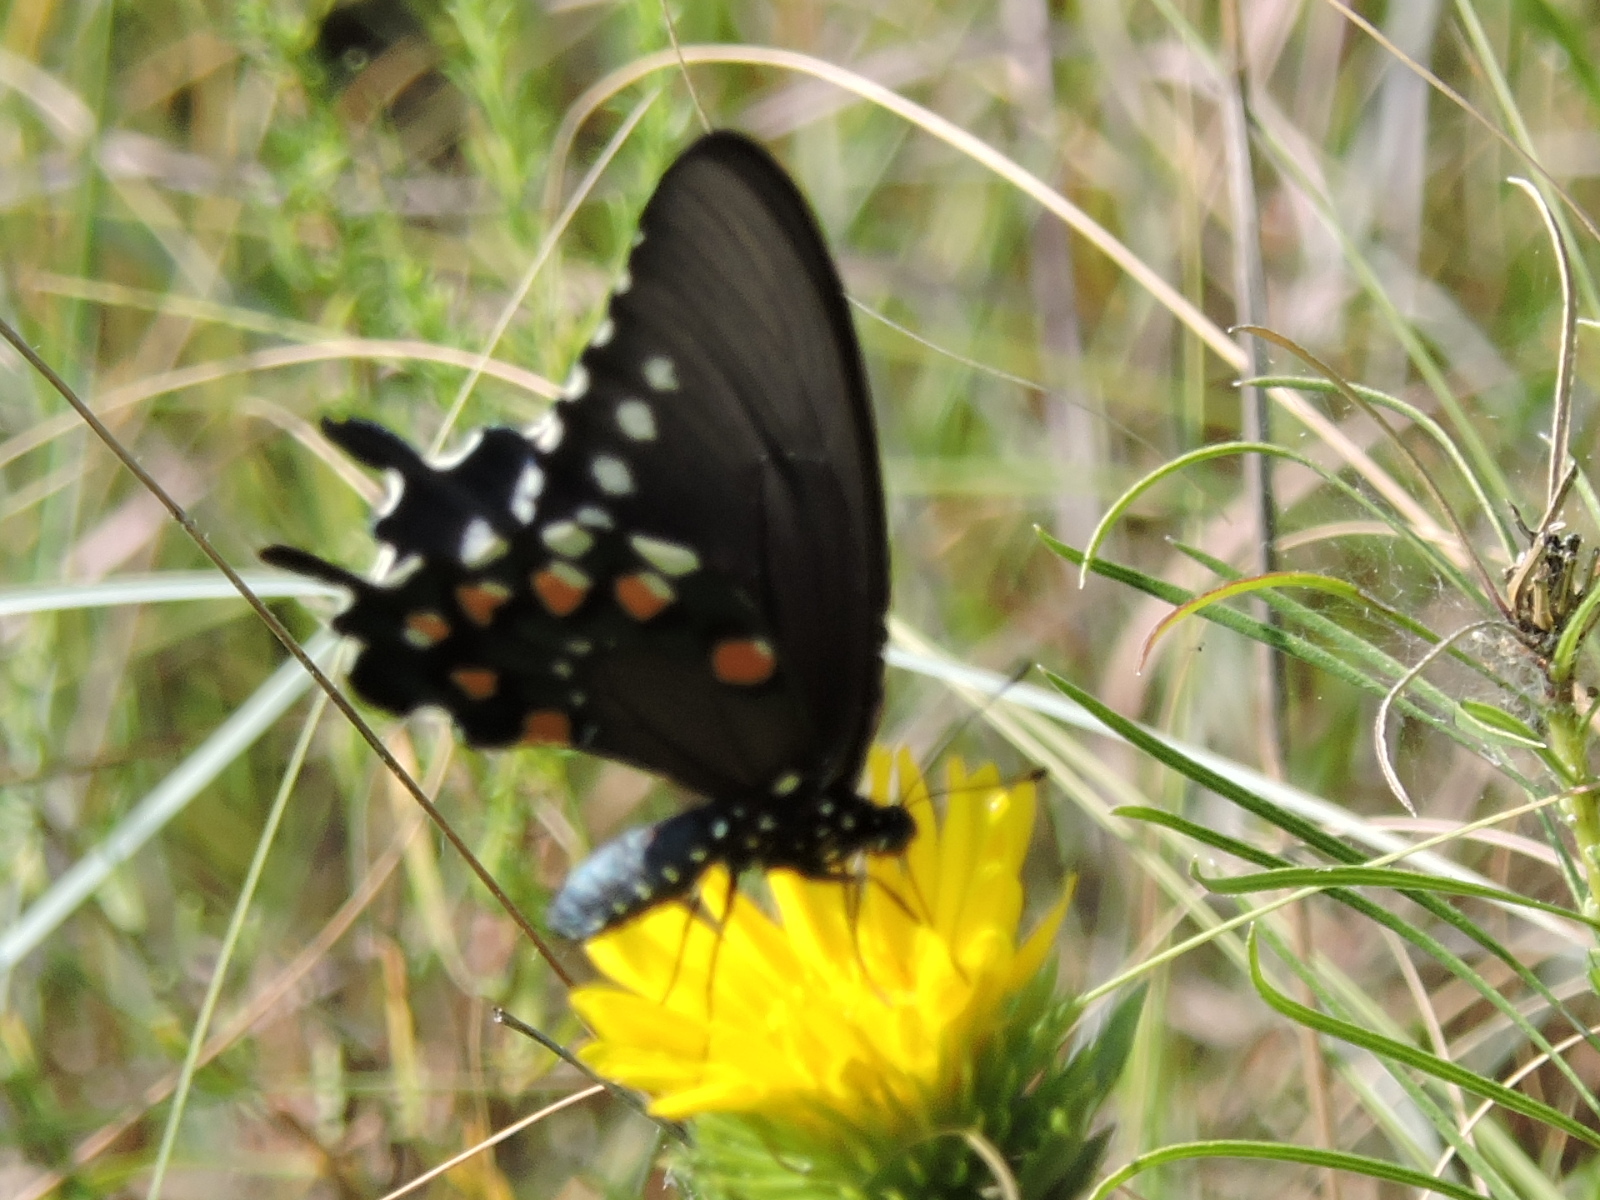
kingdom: Animalia
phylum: Arthropoda
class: Insecta
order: Lepidoptera
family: Papilionidae
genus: Battus
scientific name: Battus philenor
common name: Pipevine swallowtail
